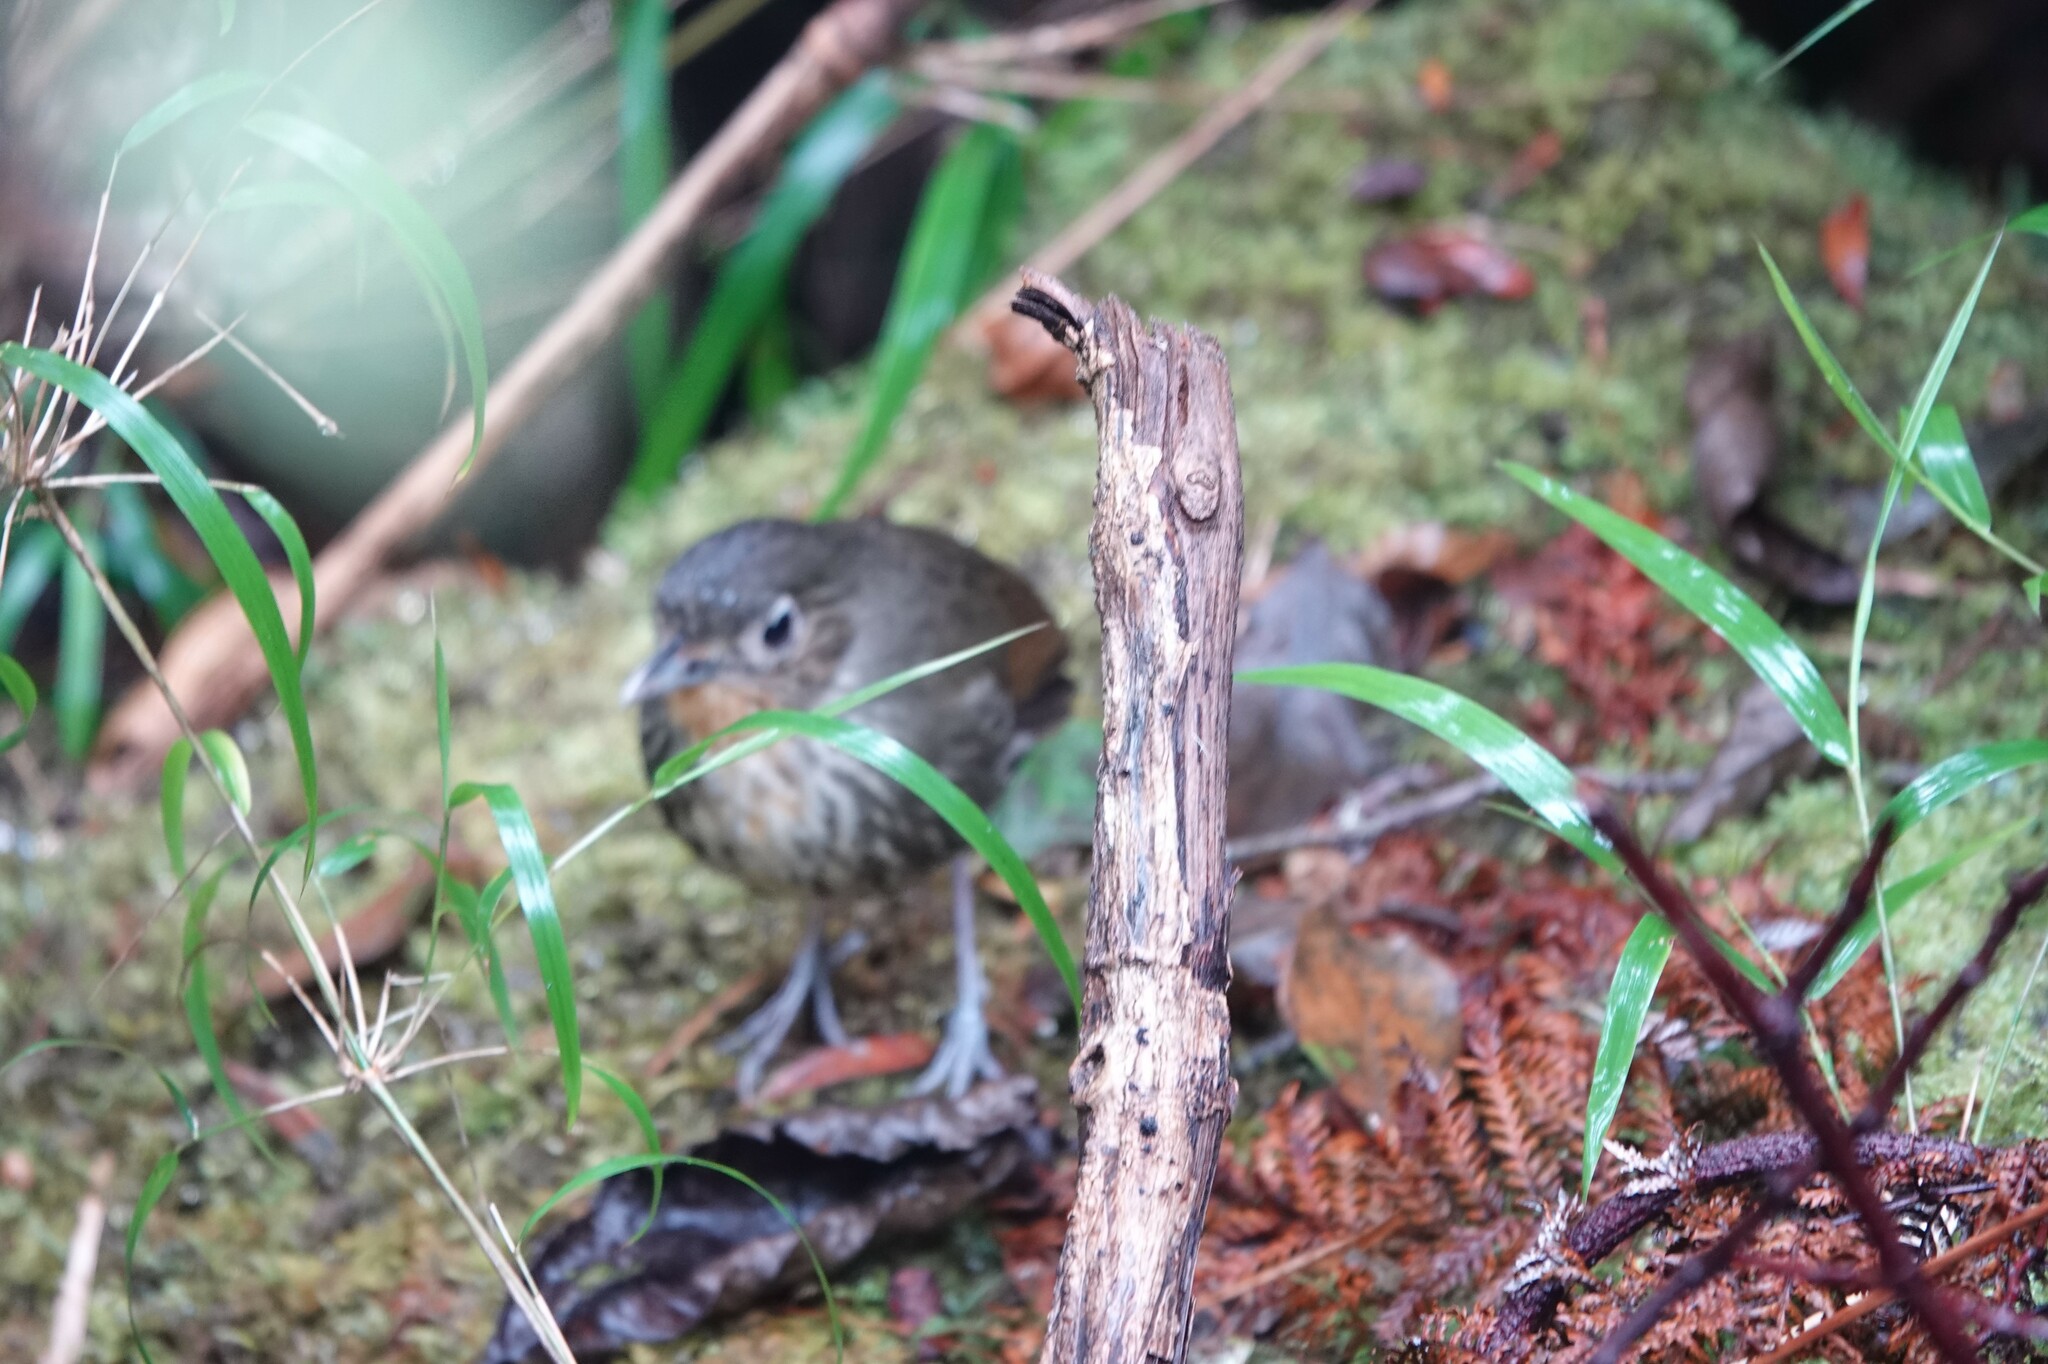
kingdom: Animalia
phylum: Chordata
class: Aves
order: Passeriformes
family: Grallariidae
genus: Grallaria
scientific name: Grallaria bangsi
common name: Santa marta antpitta
